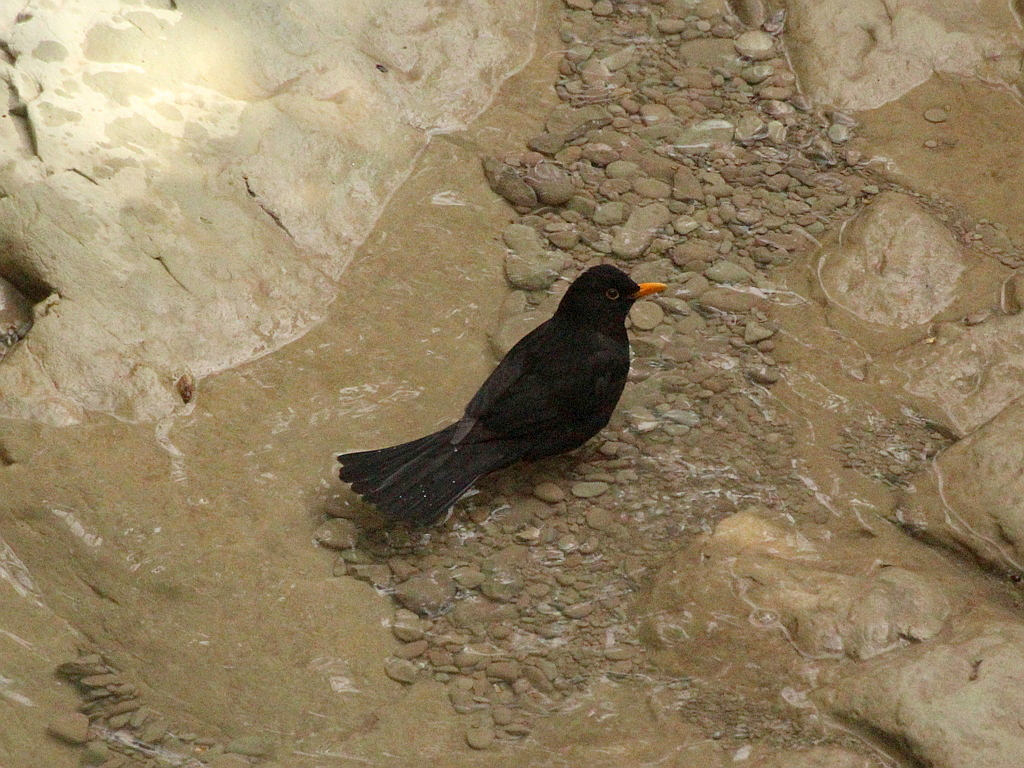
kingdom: Animalia
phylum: Chordata
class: Aves
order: Passeriformes
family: Turdidae
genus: Turdus
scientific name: Turdus merula
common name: Common blackbird
